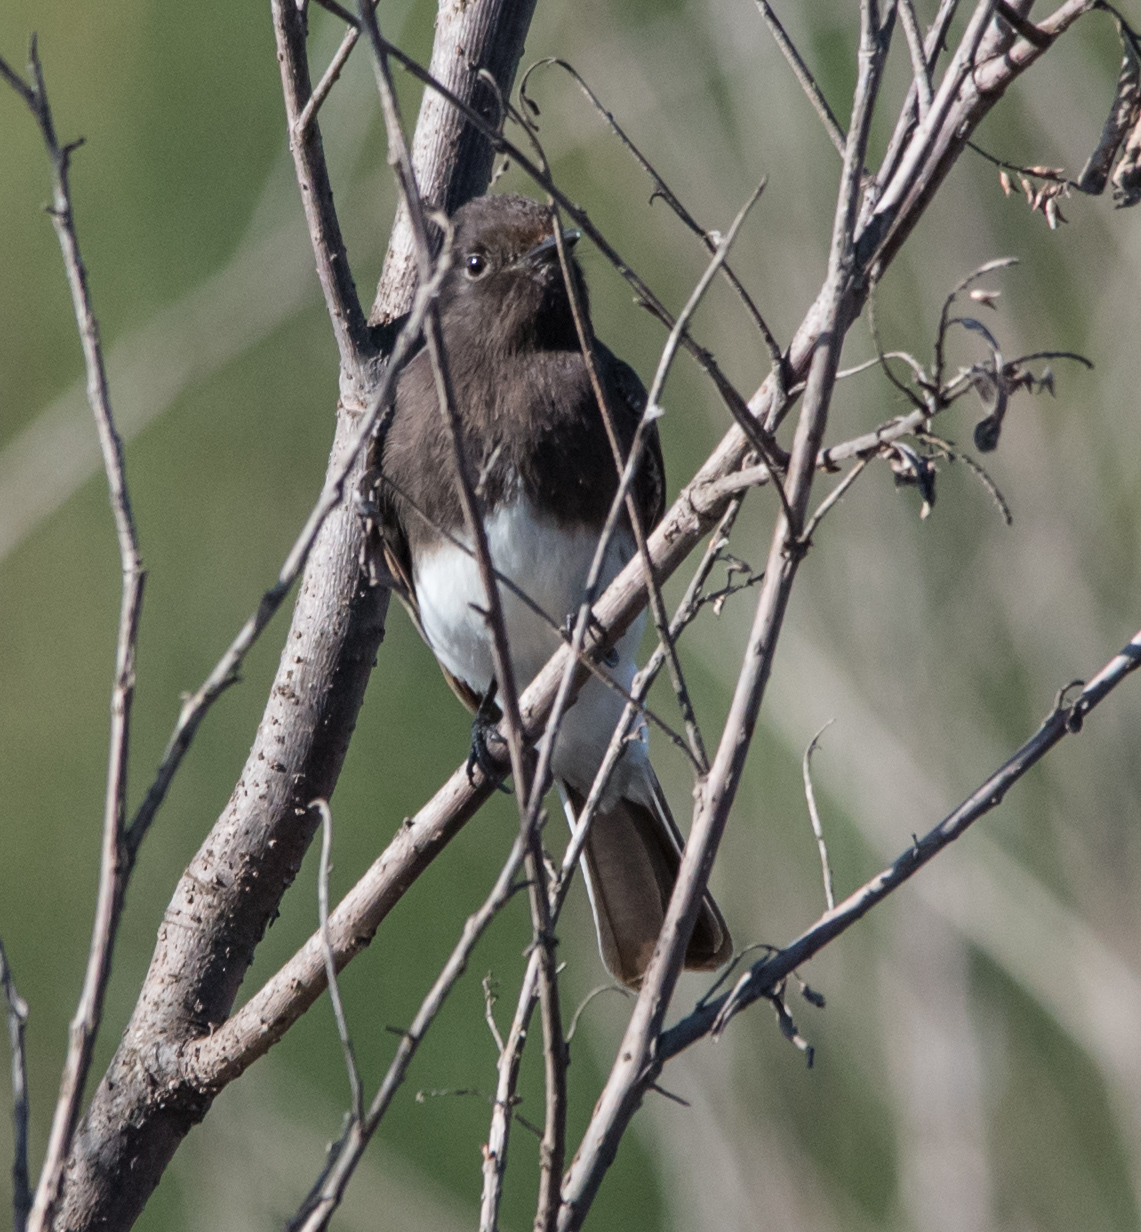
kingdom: Animalia
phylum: Chordata
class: Aves
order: Passeriformes
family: Tyrannidae
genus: Sayornis
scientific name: Sayornis nigricans
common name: Black phoebe
